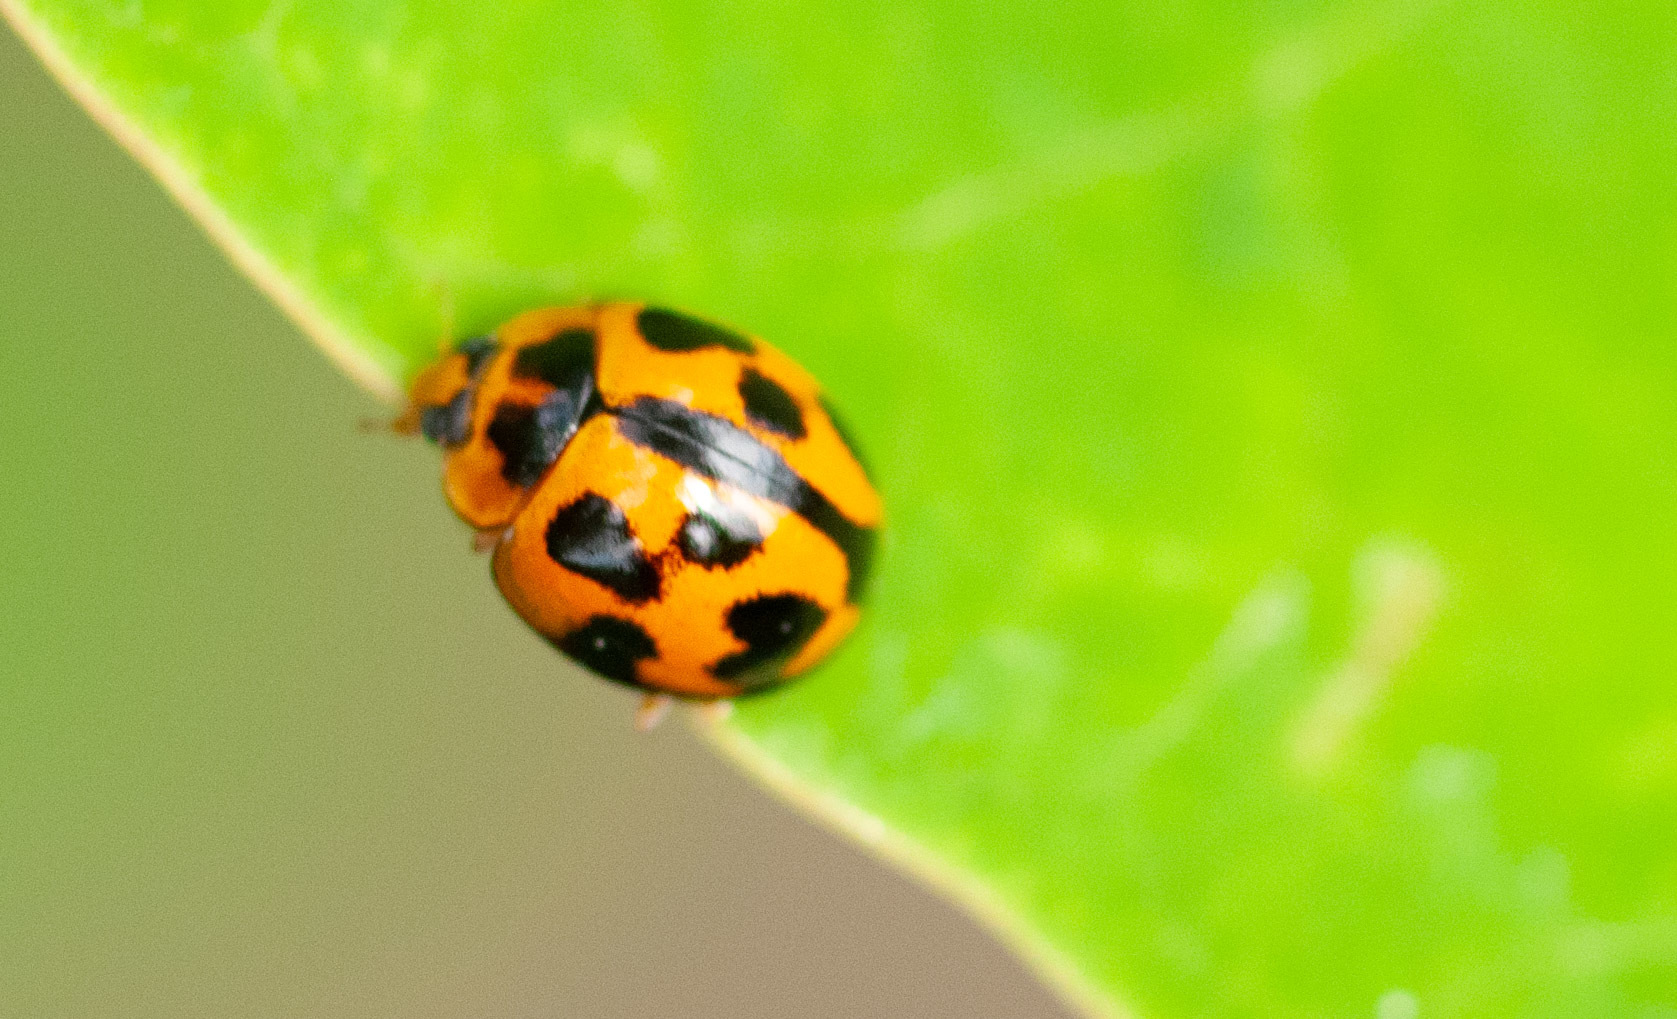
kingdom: Animalia
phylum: Arthropoda
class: Insecta
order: Coleoptera
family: Coccinellidae
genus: Coelophora
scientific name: Coelophora inaequalis
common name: Common australian lady beetle
